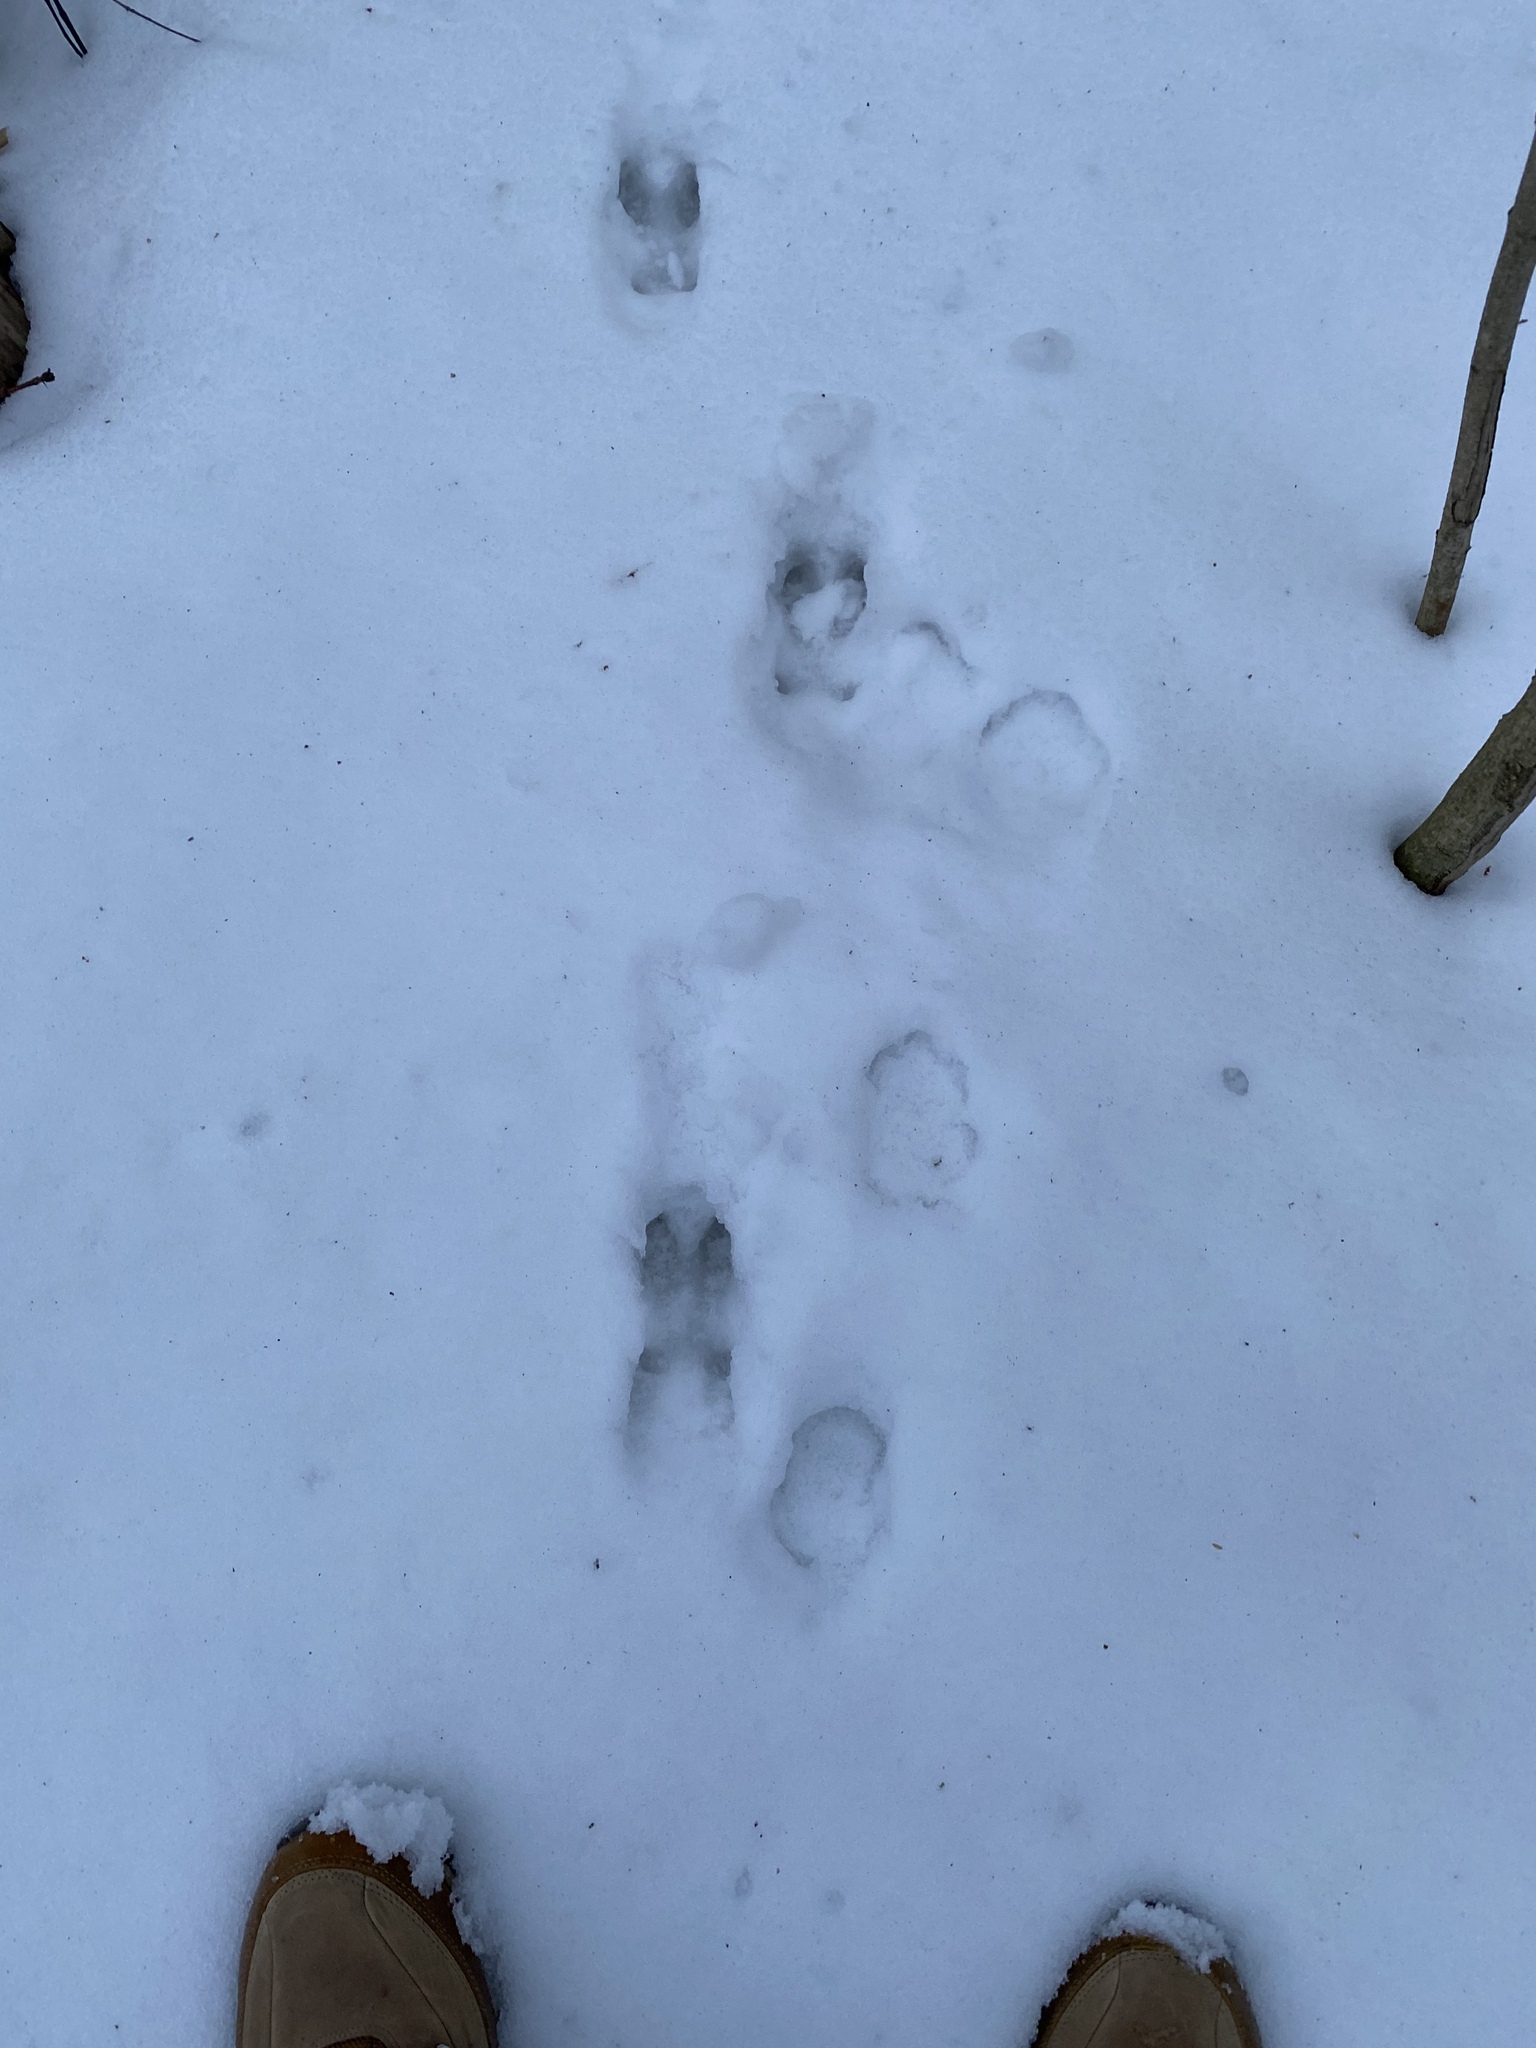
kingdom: Animalia
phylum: Chordata
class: Mammalia
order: Artiodactyla
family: Cervidae
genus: Capreolus
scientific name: Capreolus capreolus
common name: Western roe deer
